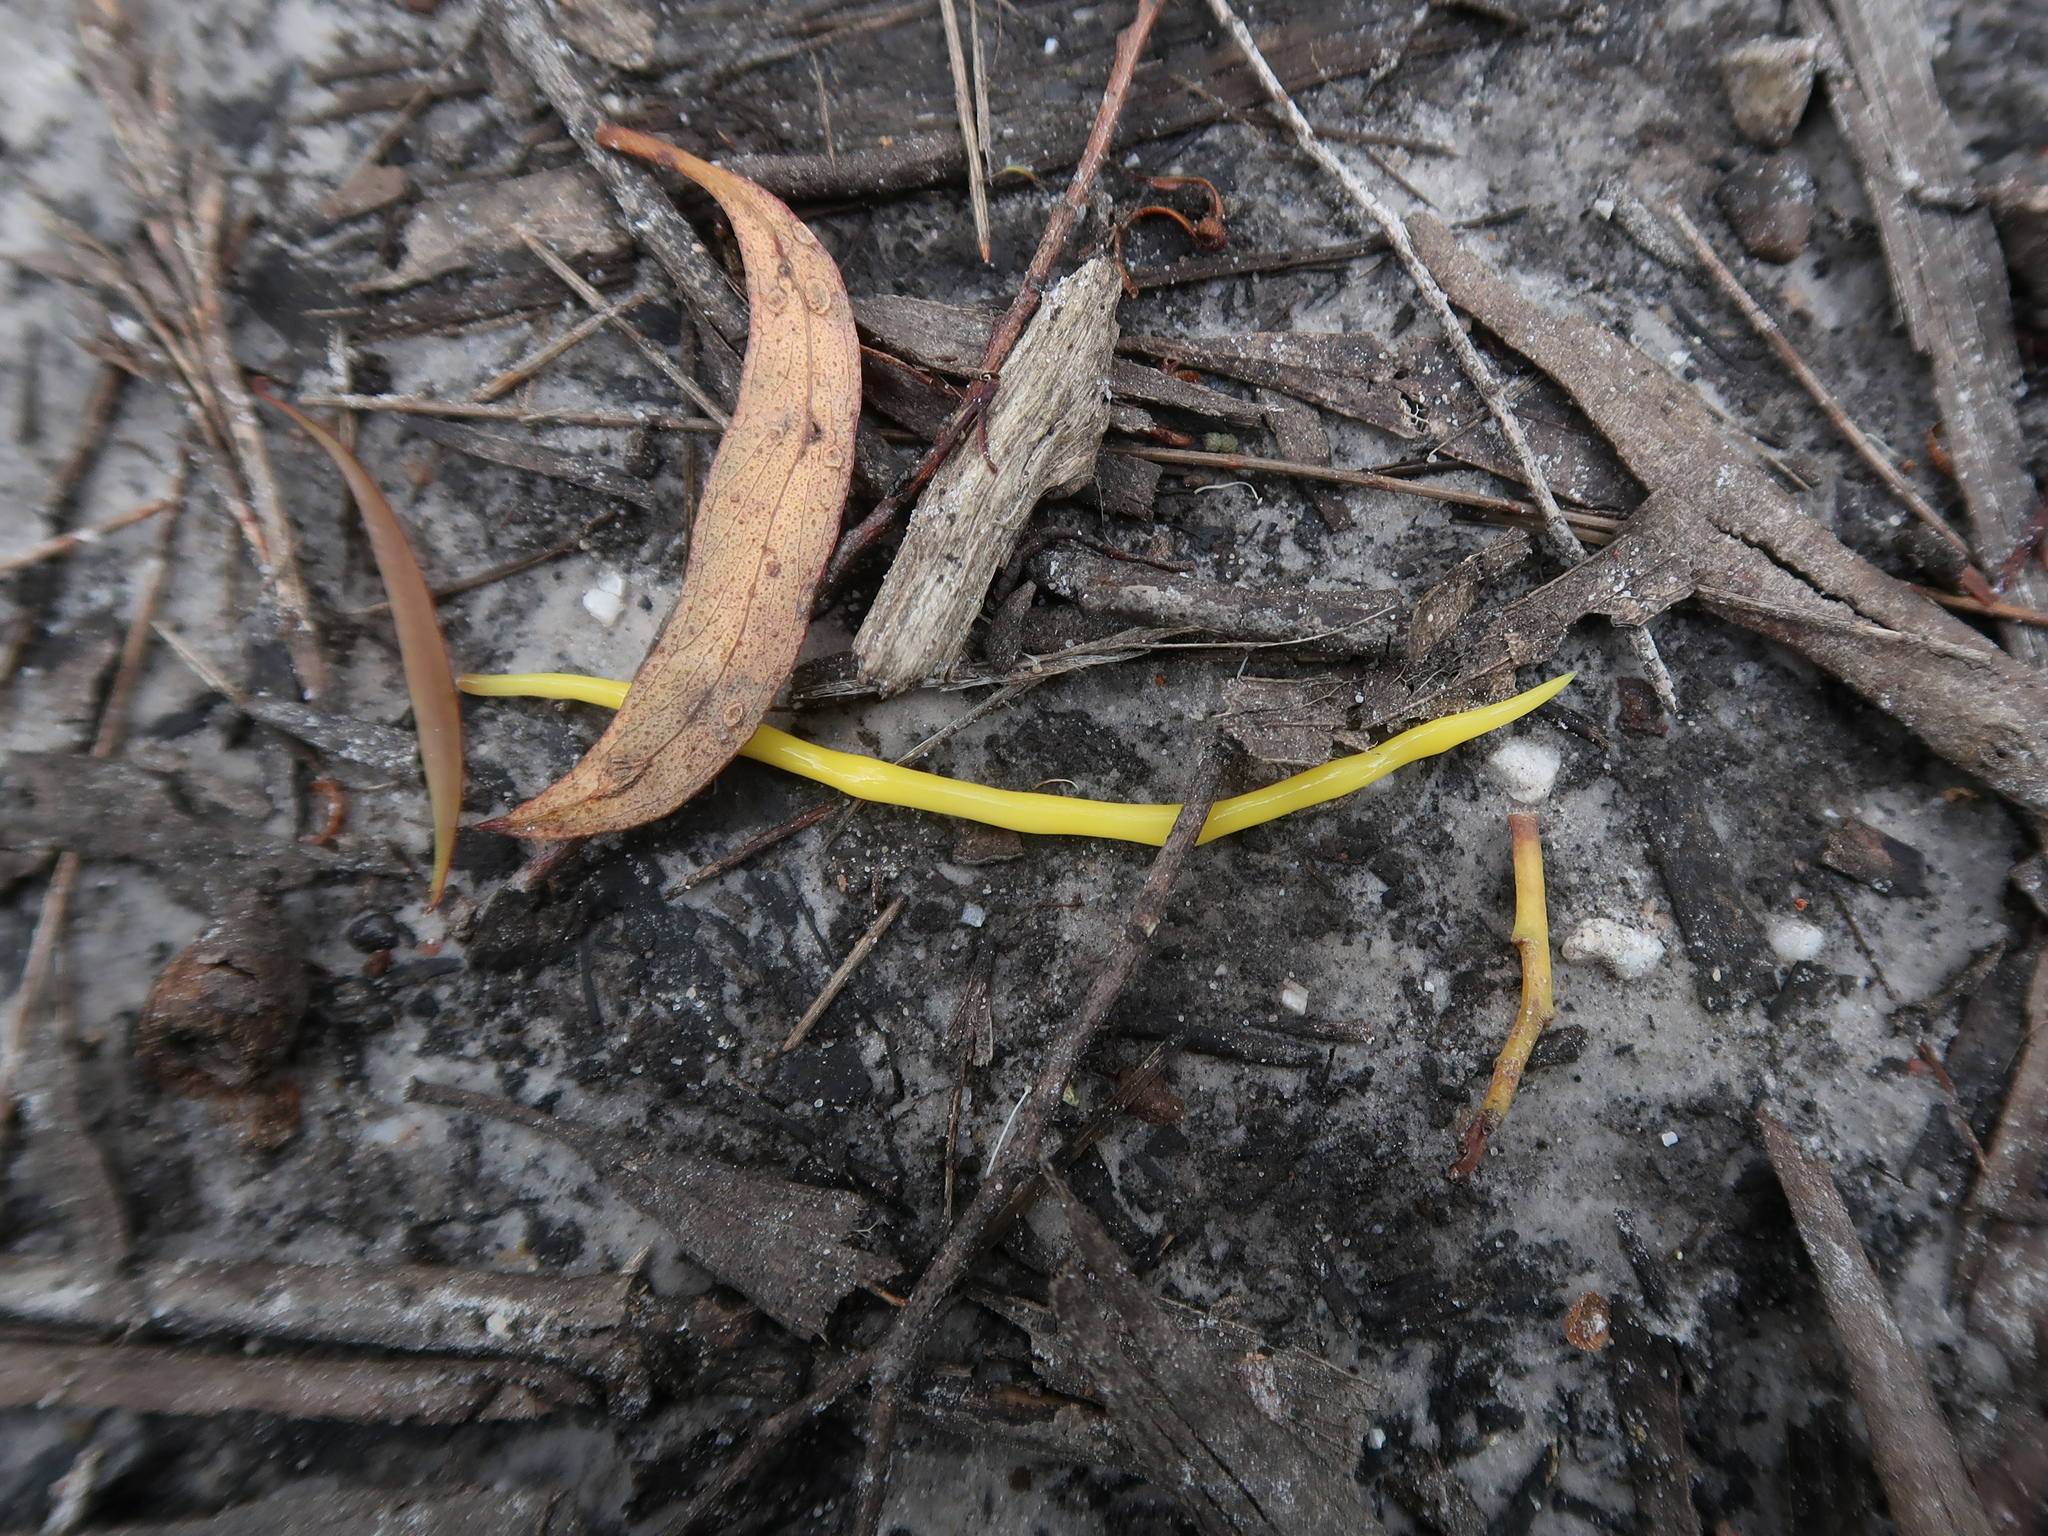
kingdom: Animalia
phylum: Platyhelminthes
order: Tricladida
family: Geoplanidae
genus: Fletchamia
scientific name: Fletchamia sugdeni
